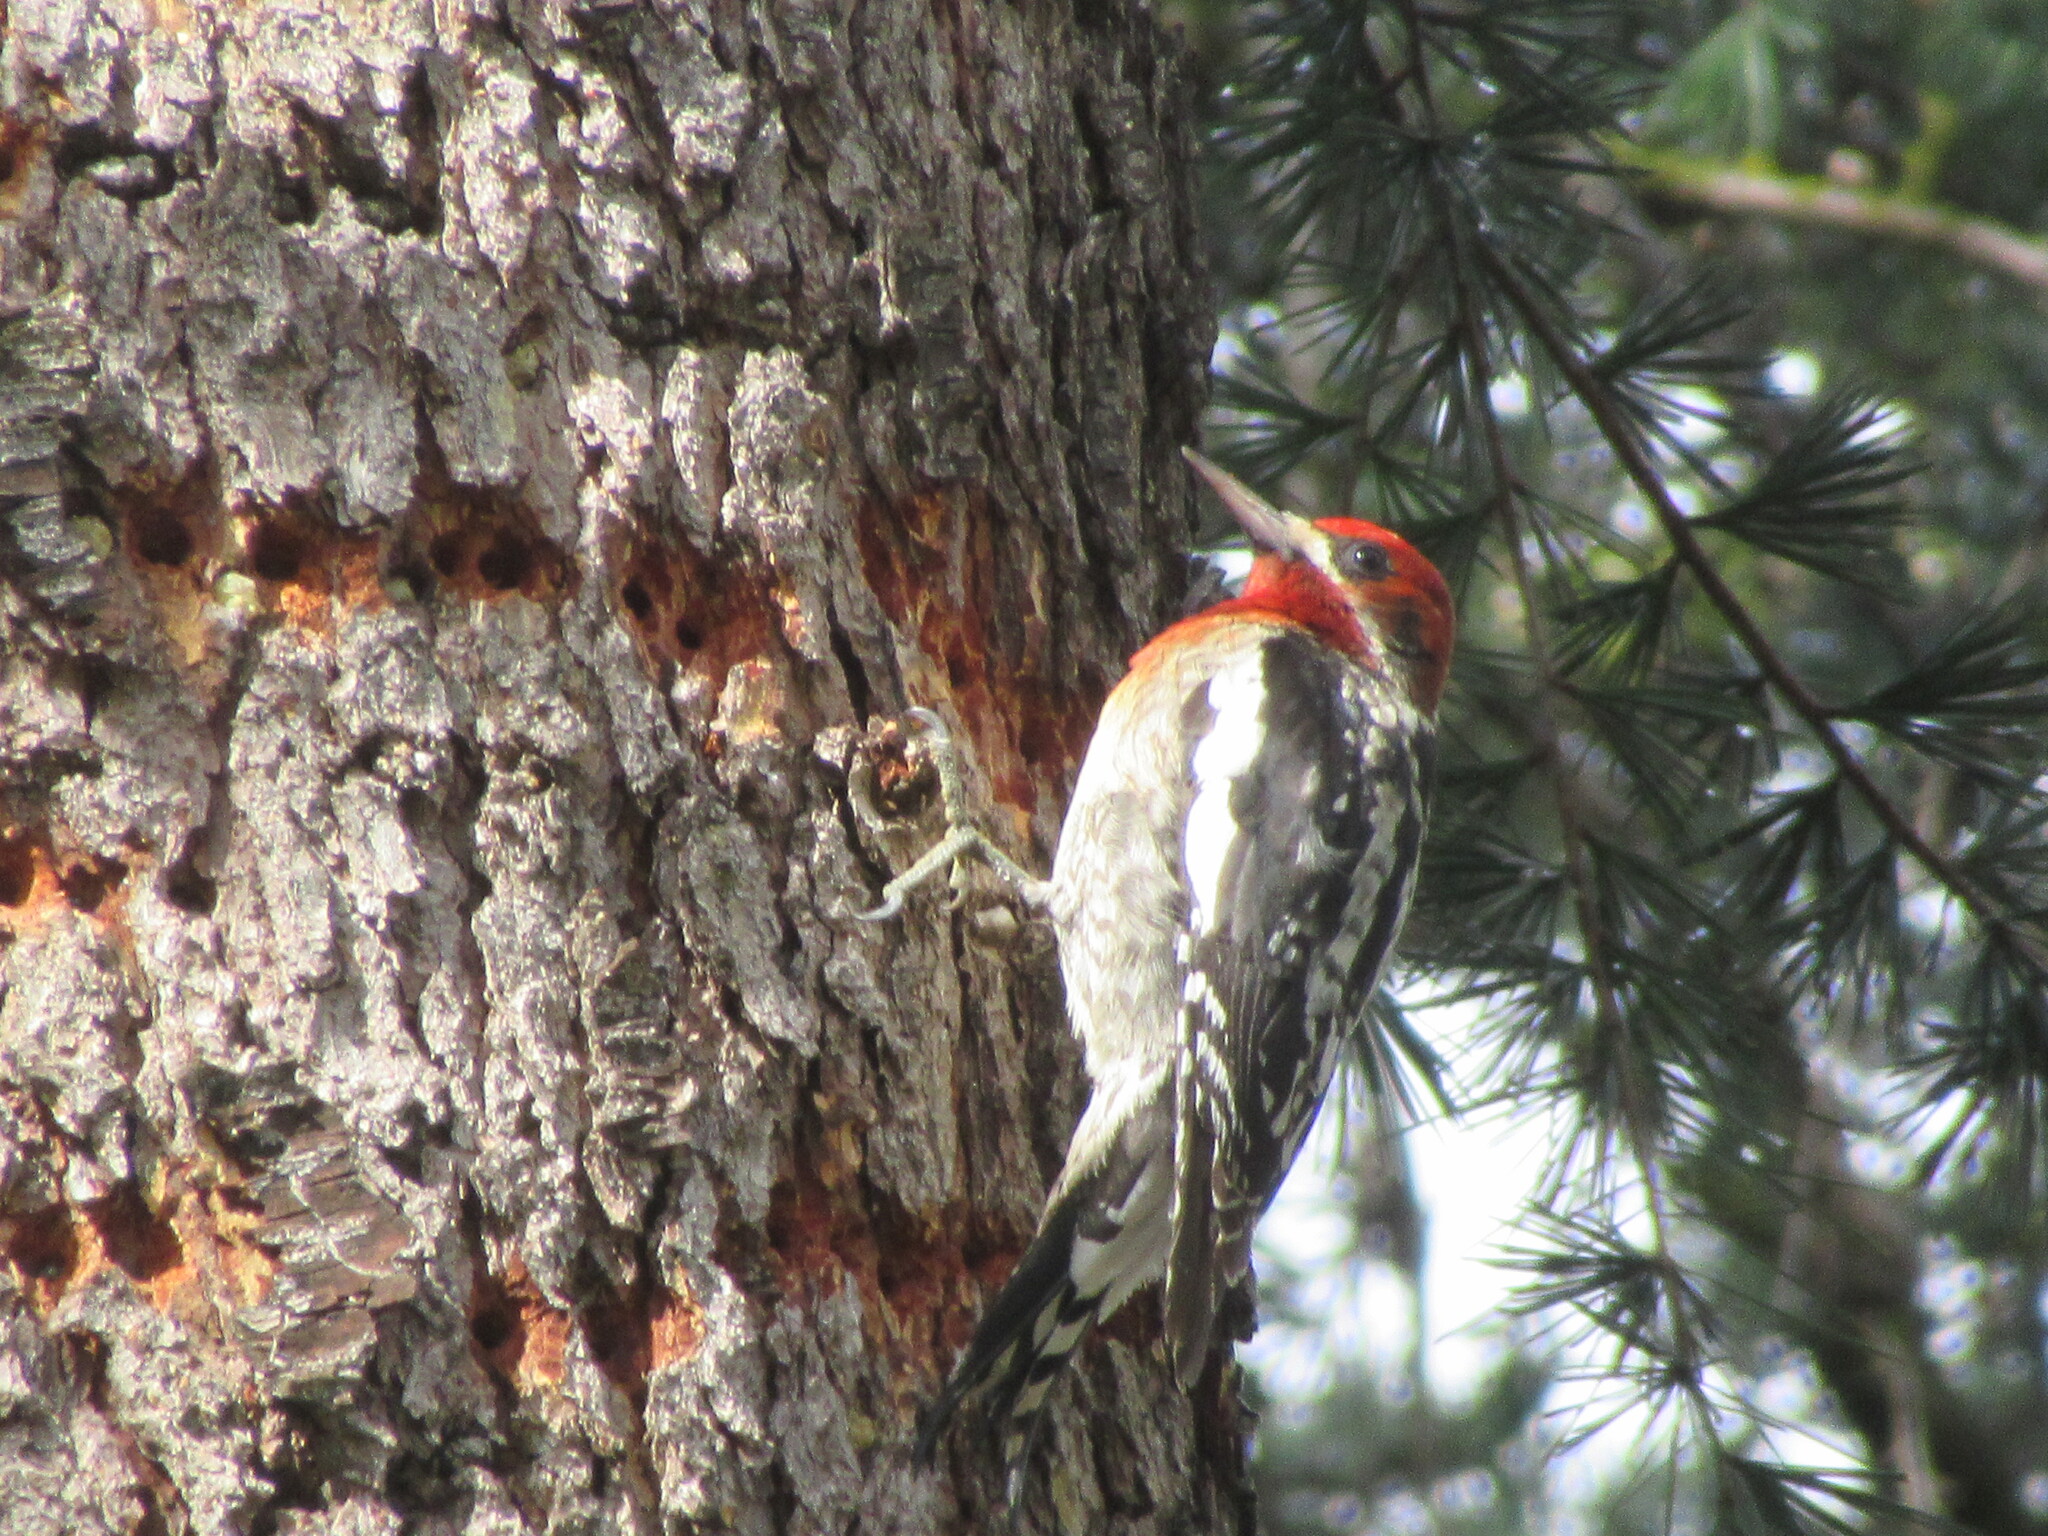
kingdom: Animalia
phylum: Chordata
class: Aves
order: Piciformes
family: Picidae
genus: Sphyrapicus
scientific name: Sphyrapicus ruber
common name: Red-breasted sapsucker
